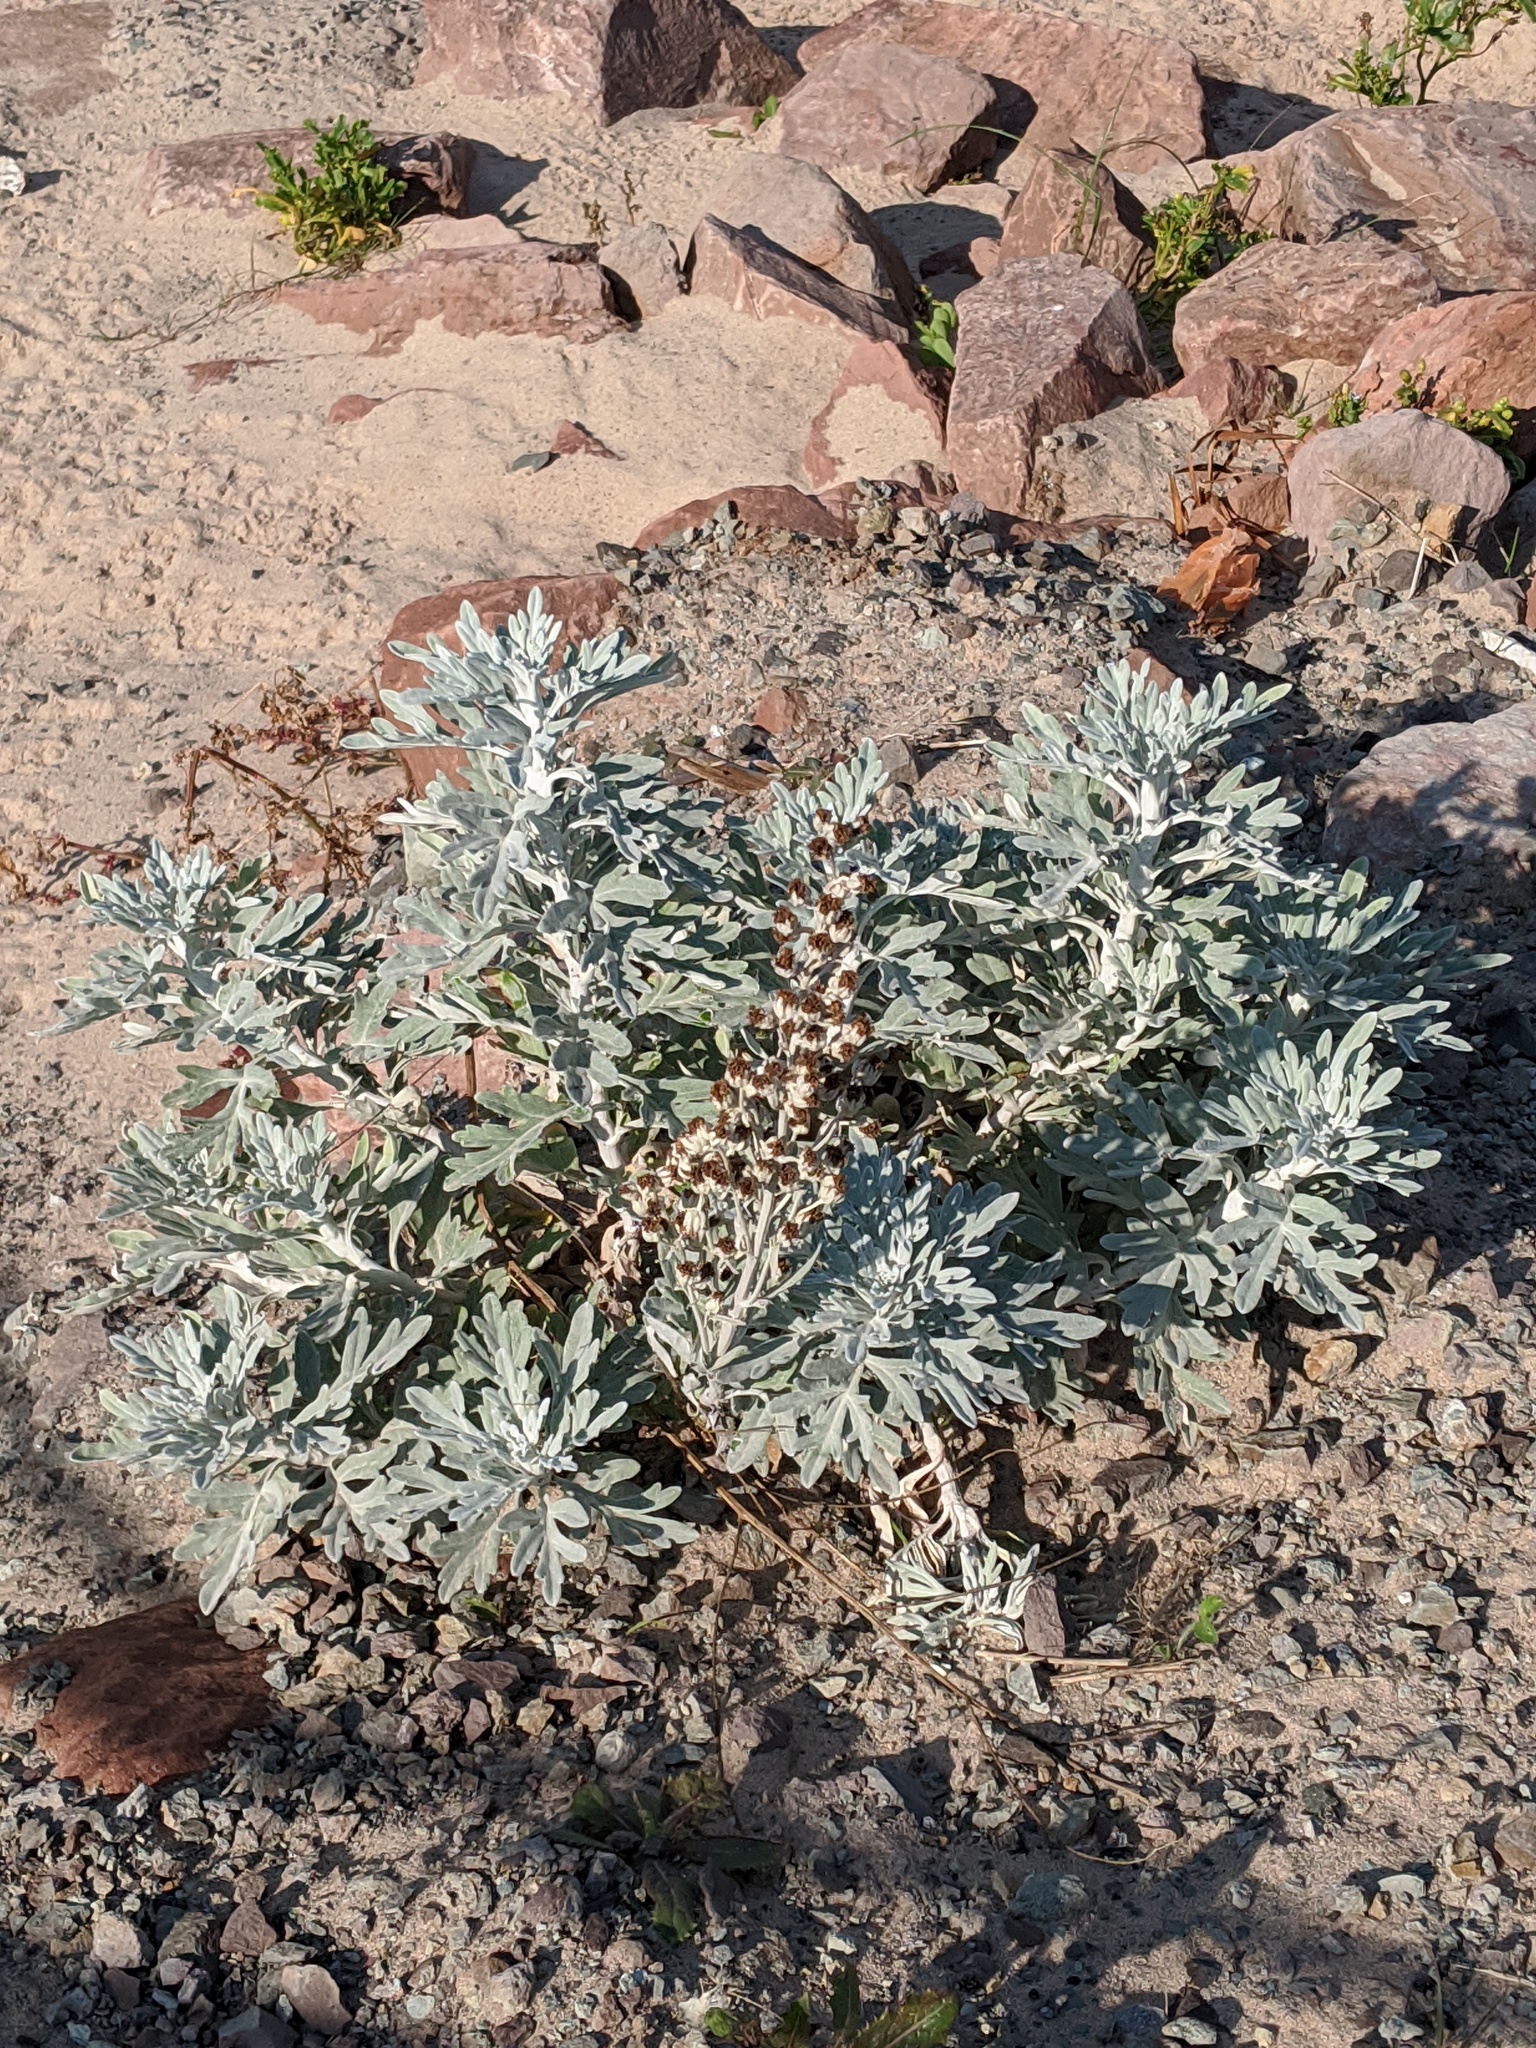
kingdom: Plantae
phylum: Tracheophyta
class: Magnoliopsida
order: Asterales
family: Asteraceae
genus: Artemisia
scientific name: Artemisia stelleriana
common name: Beach wormwood
